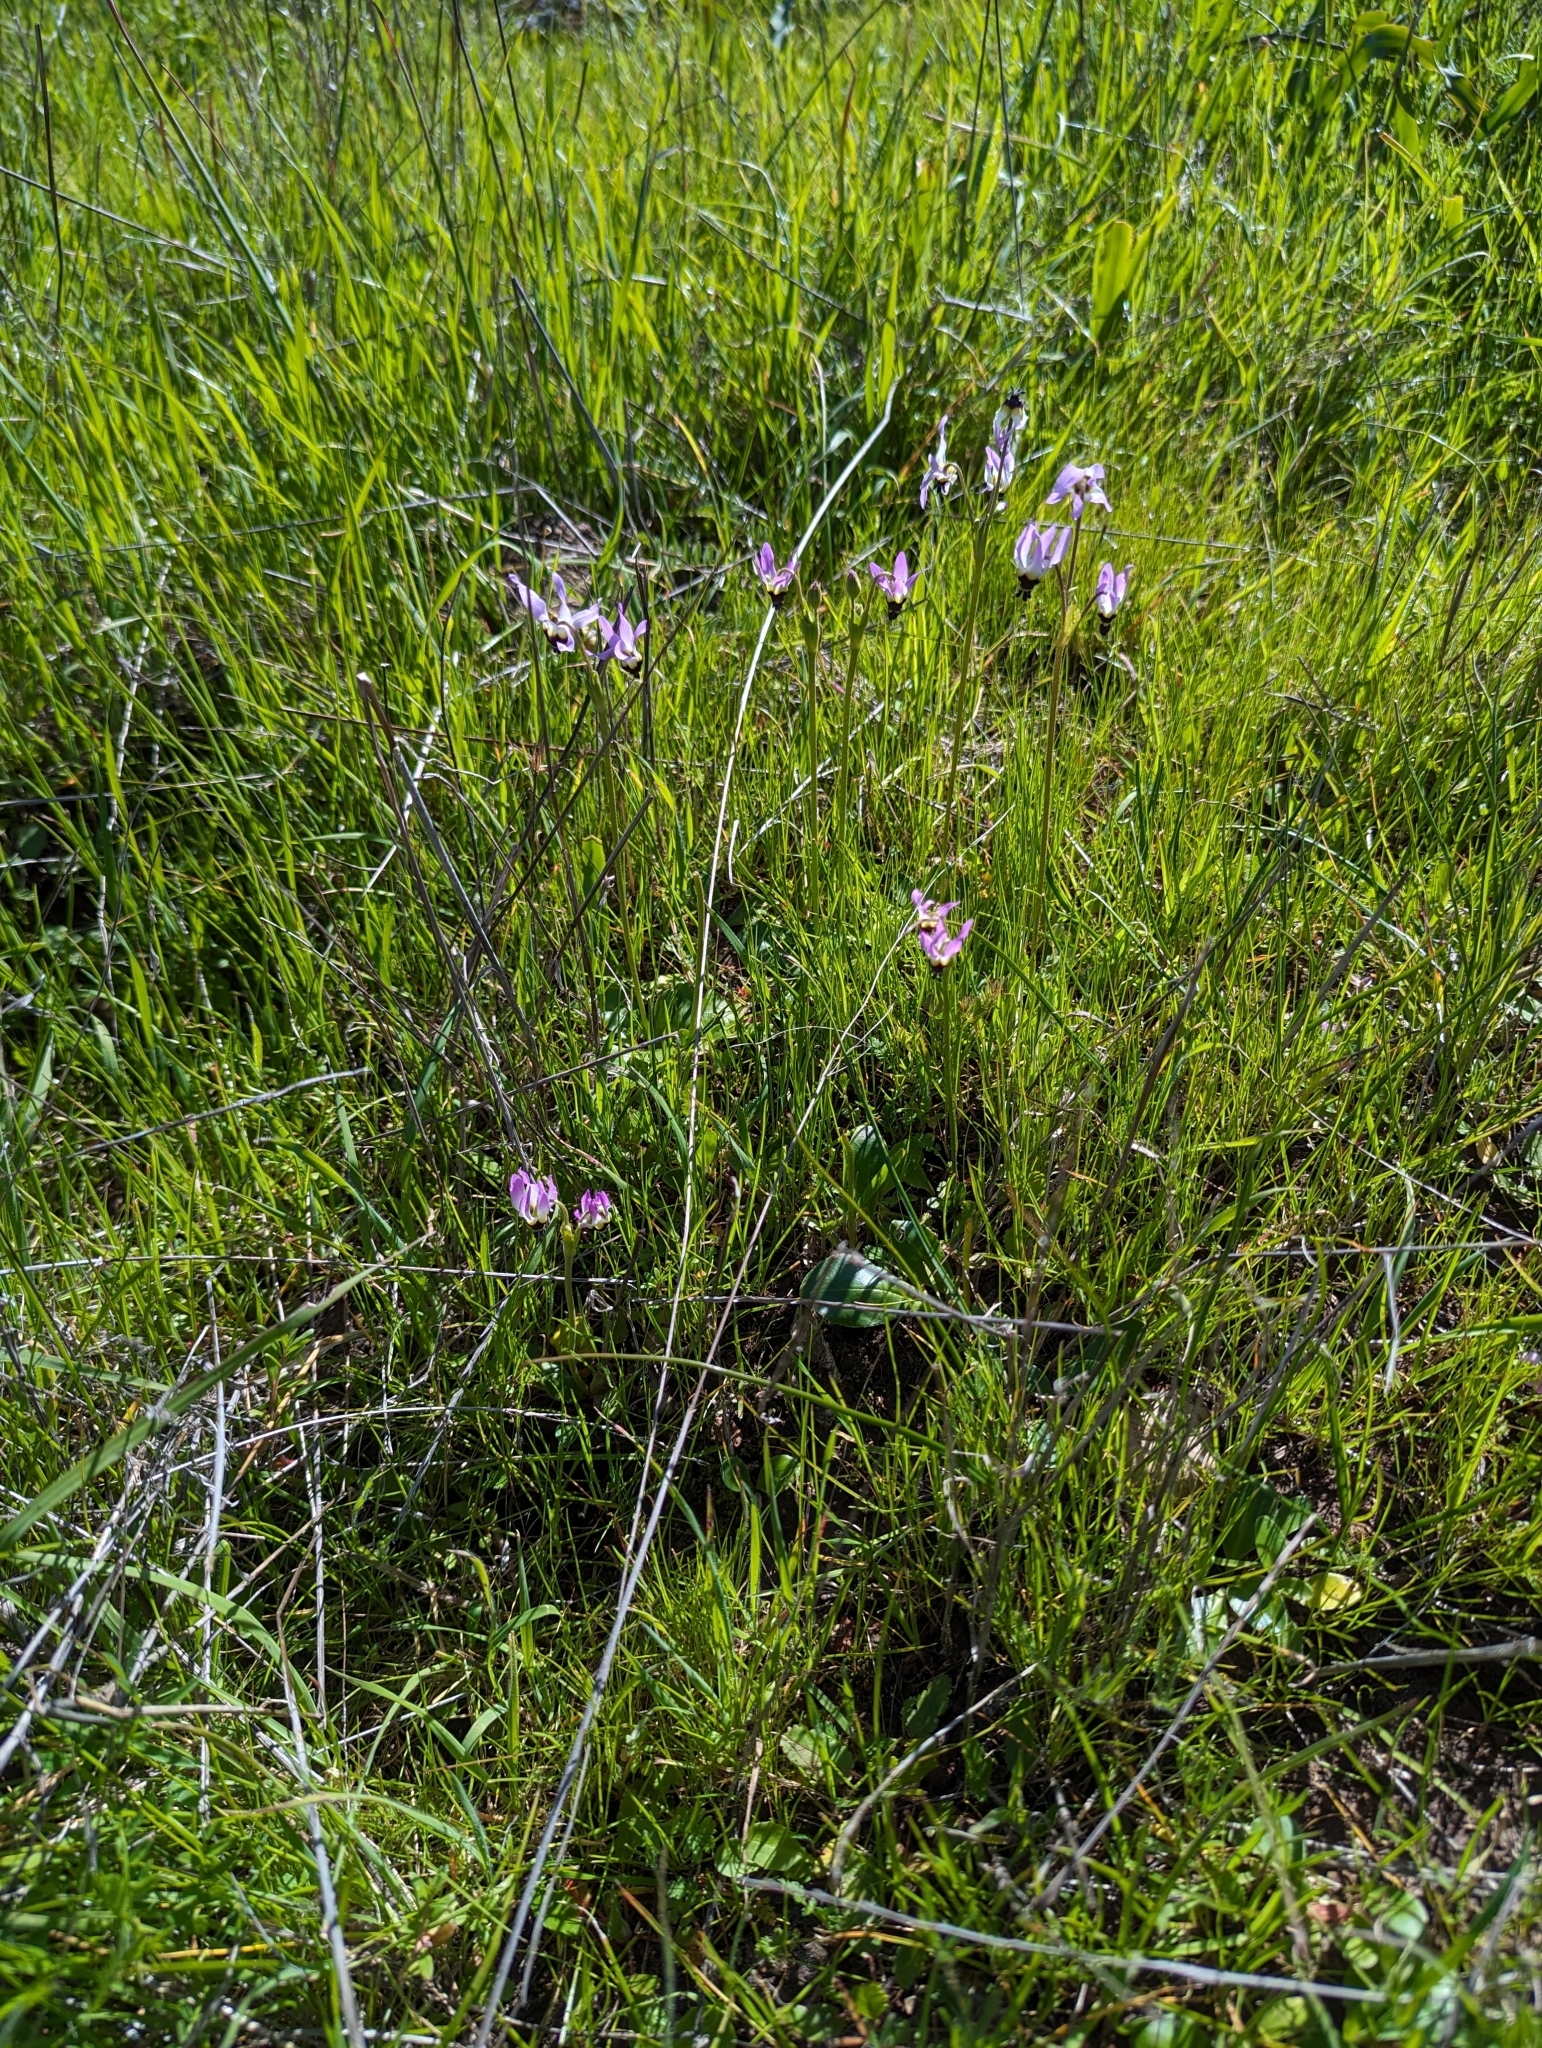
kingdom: Plantae
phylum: Tracheophyta
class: Magnoliopsida
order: Ericales
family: Primulaceae
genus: Dodecatheon
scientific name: Dodecatheon clevelandii
